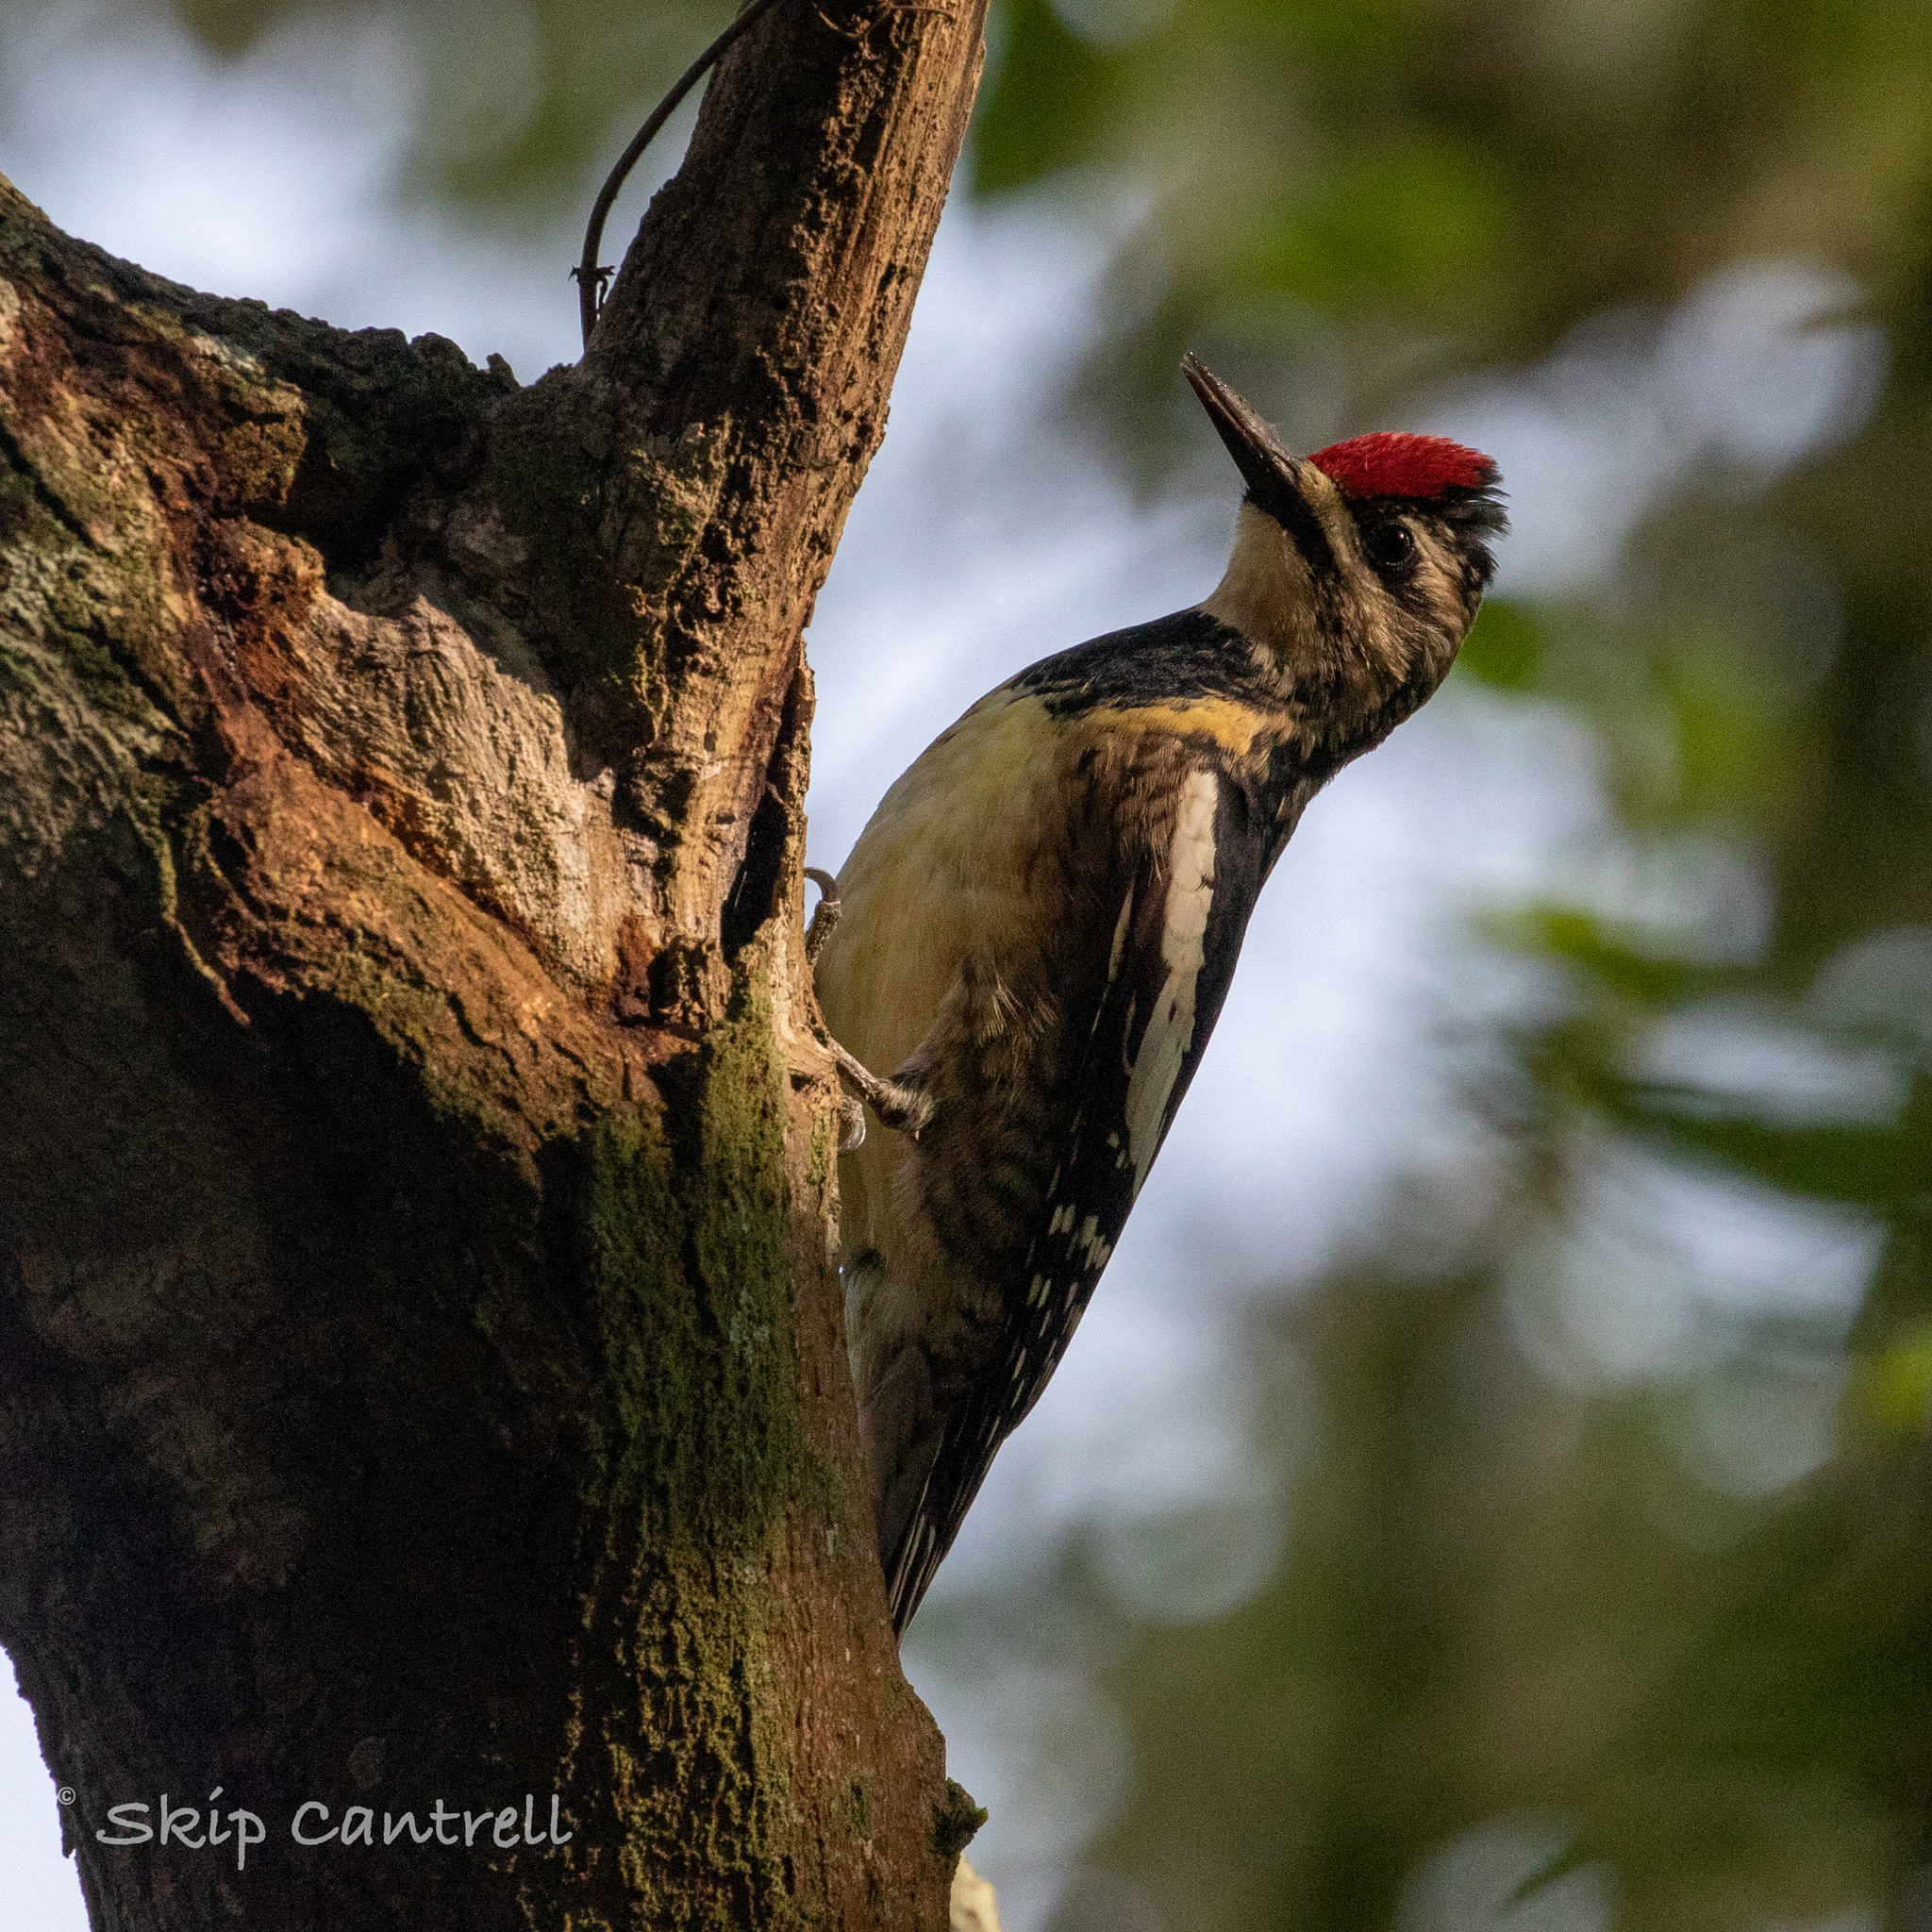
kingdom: Animalia
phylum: Chordata
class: Aves
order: Piciformes
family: Picidae
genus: Sphyrapicus
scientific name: Sphyrapicus varius
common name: Yellow-bellied sapsucker
